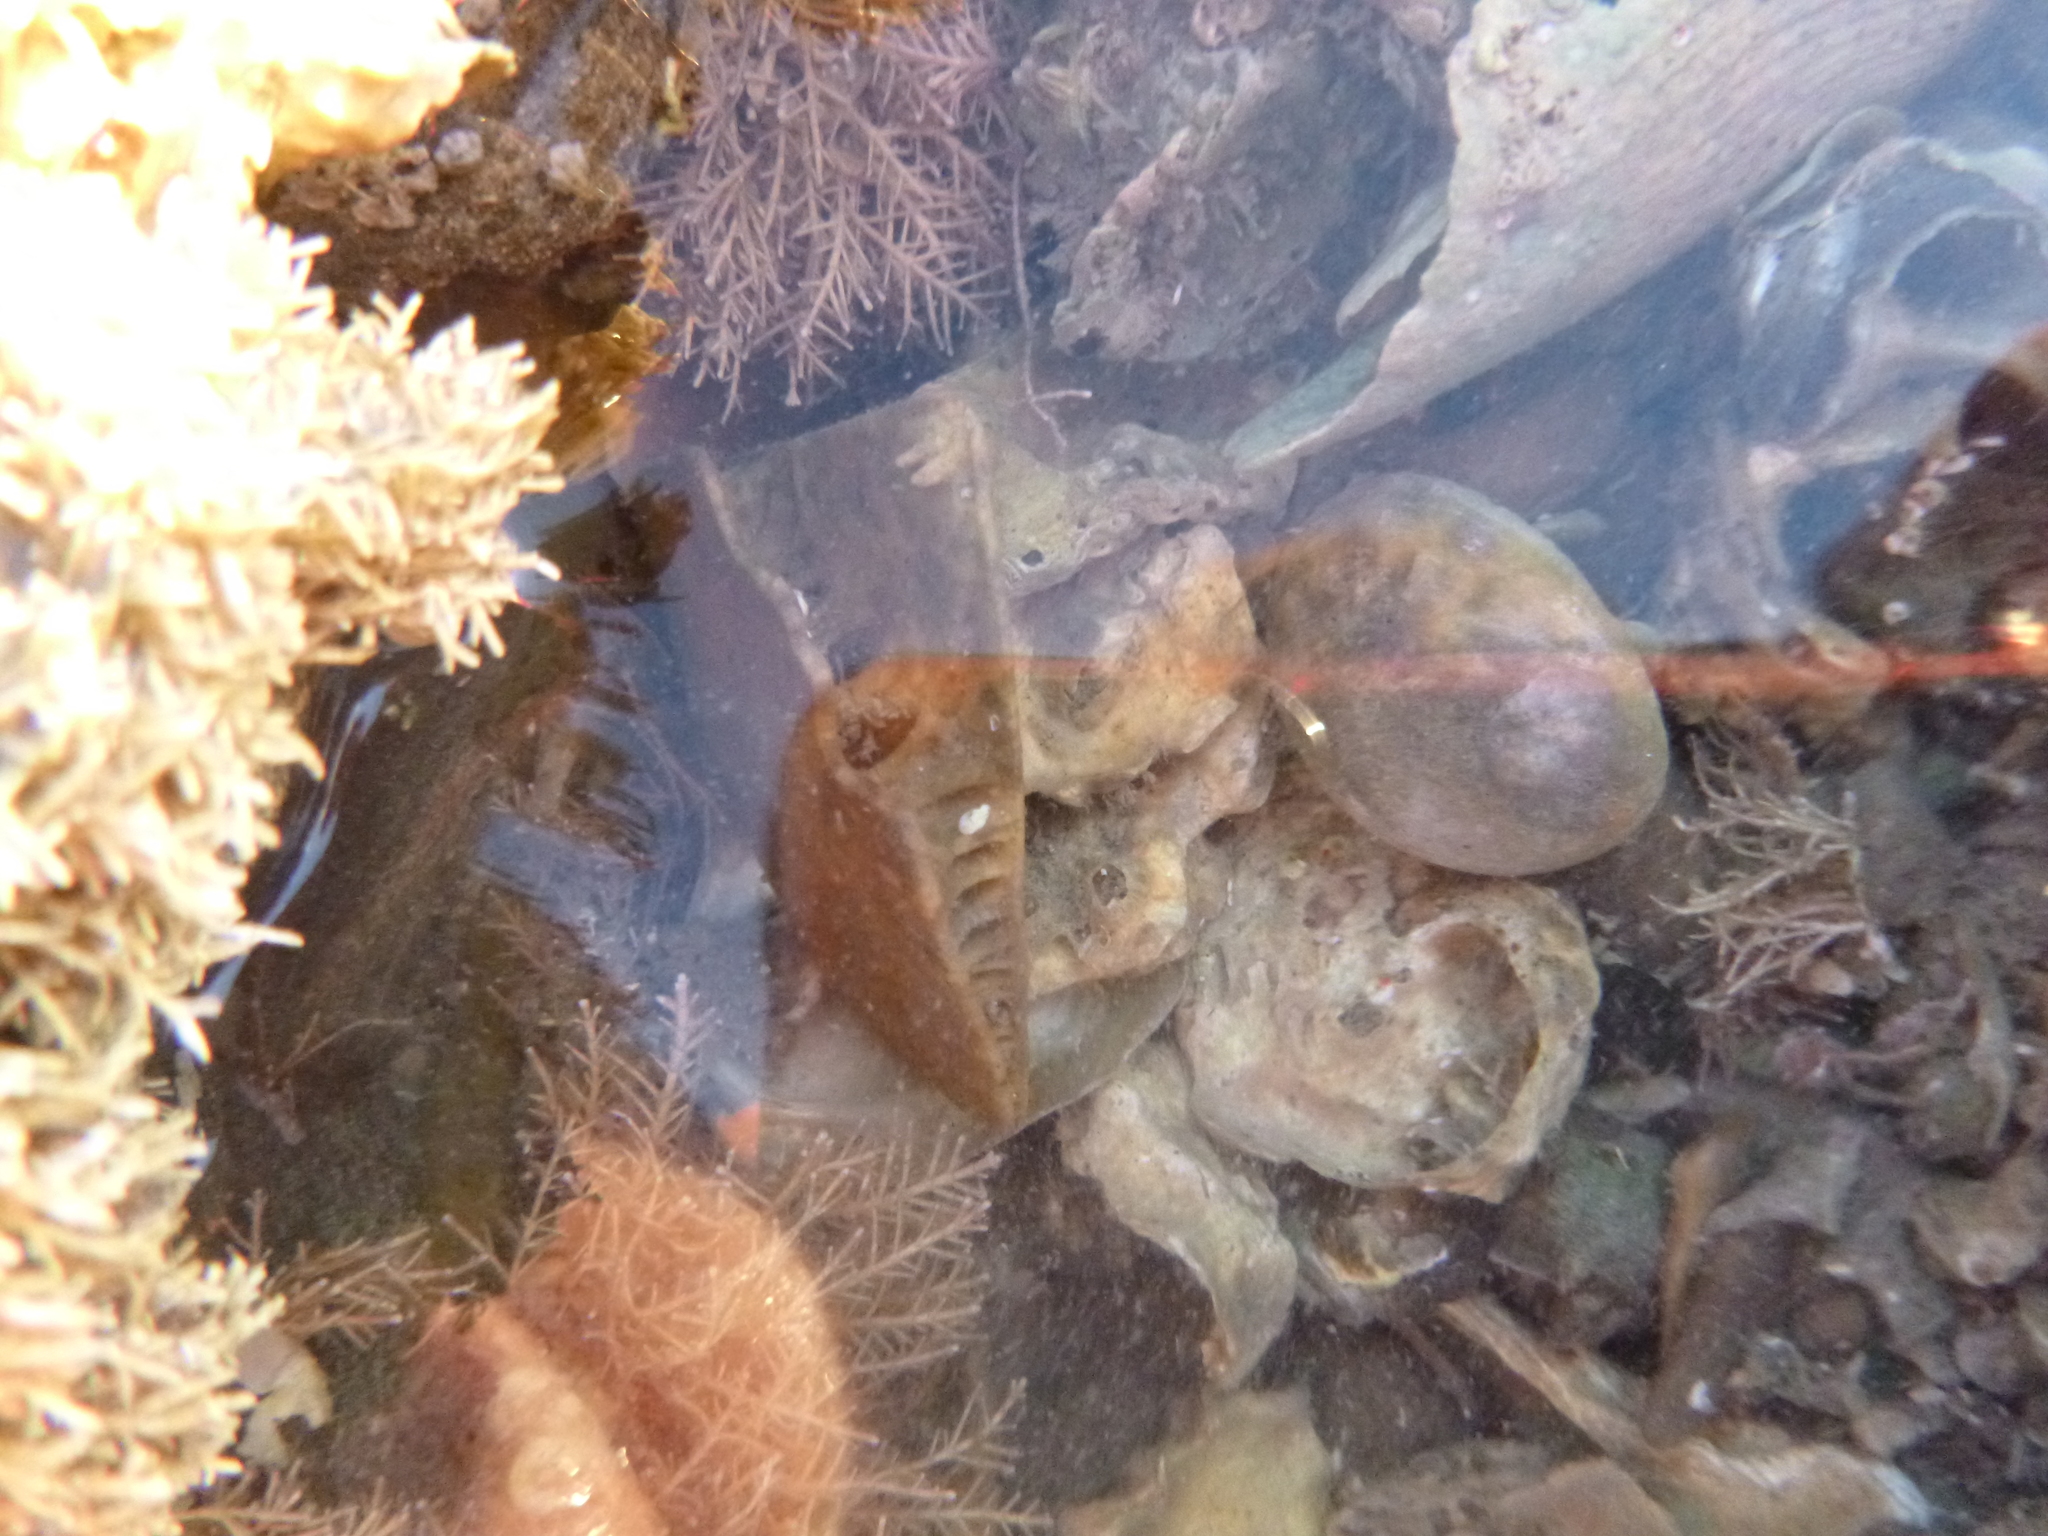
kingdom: Animalia
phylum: Echinodermata
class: Echinoidea
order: Clypeasteroida
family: Clypeasteridae
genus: Fellaster
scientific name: Fellaster zelandiae
